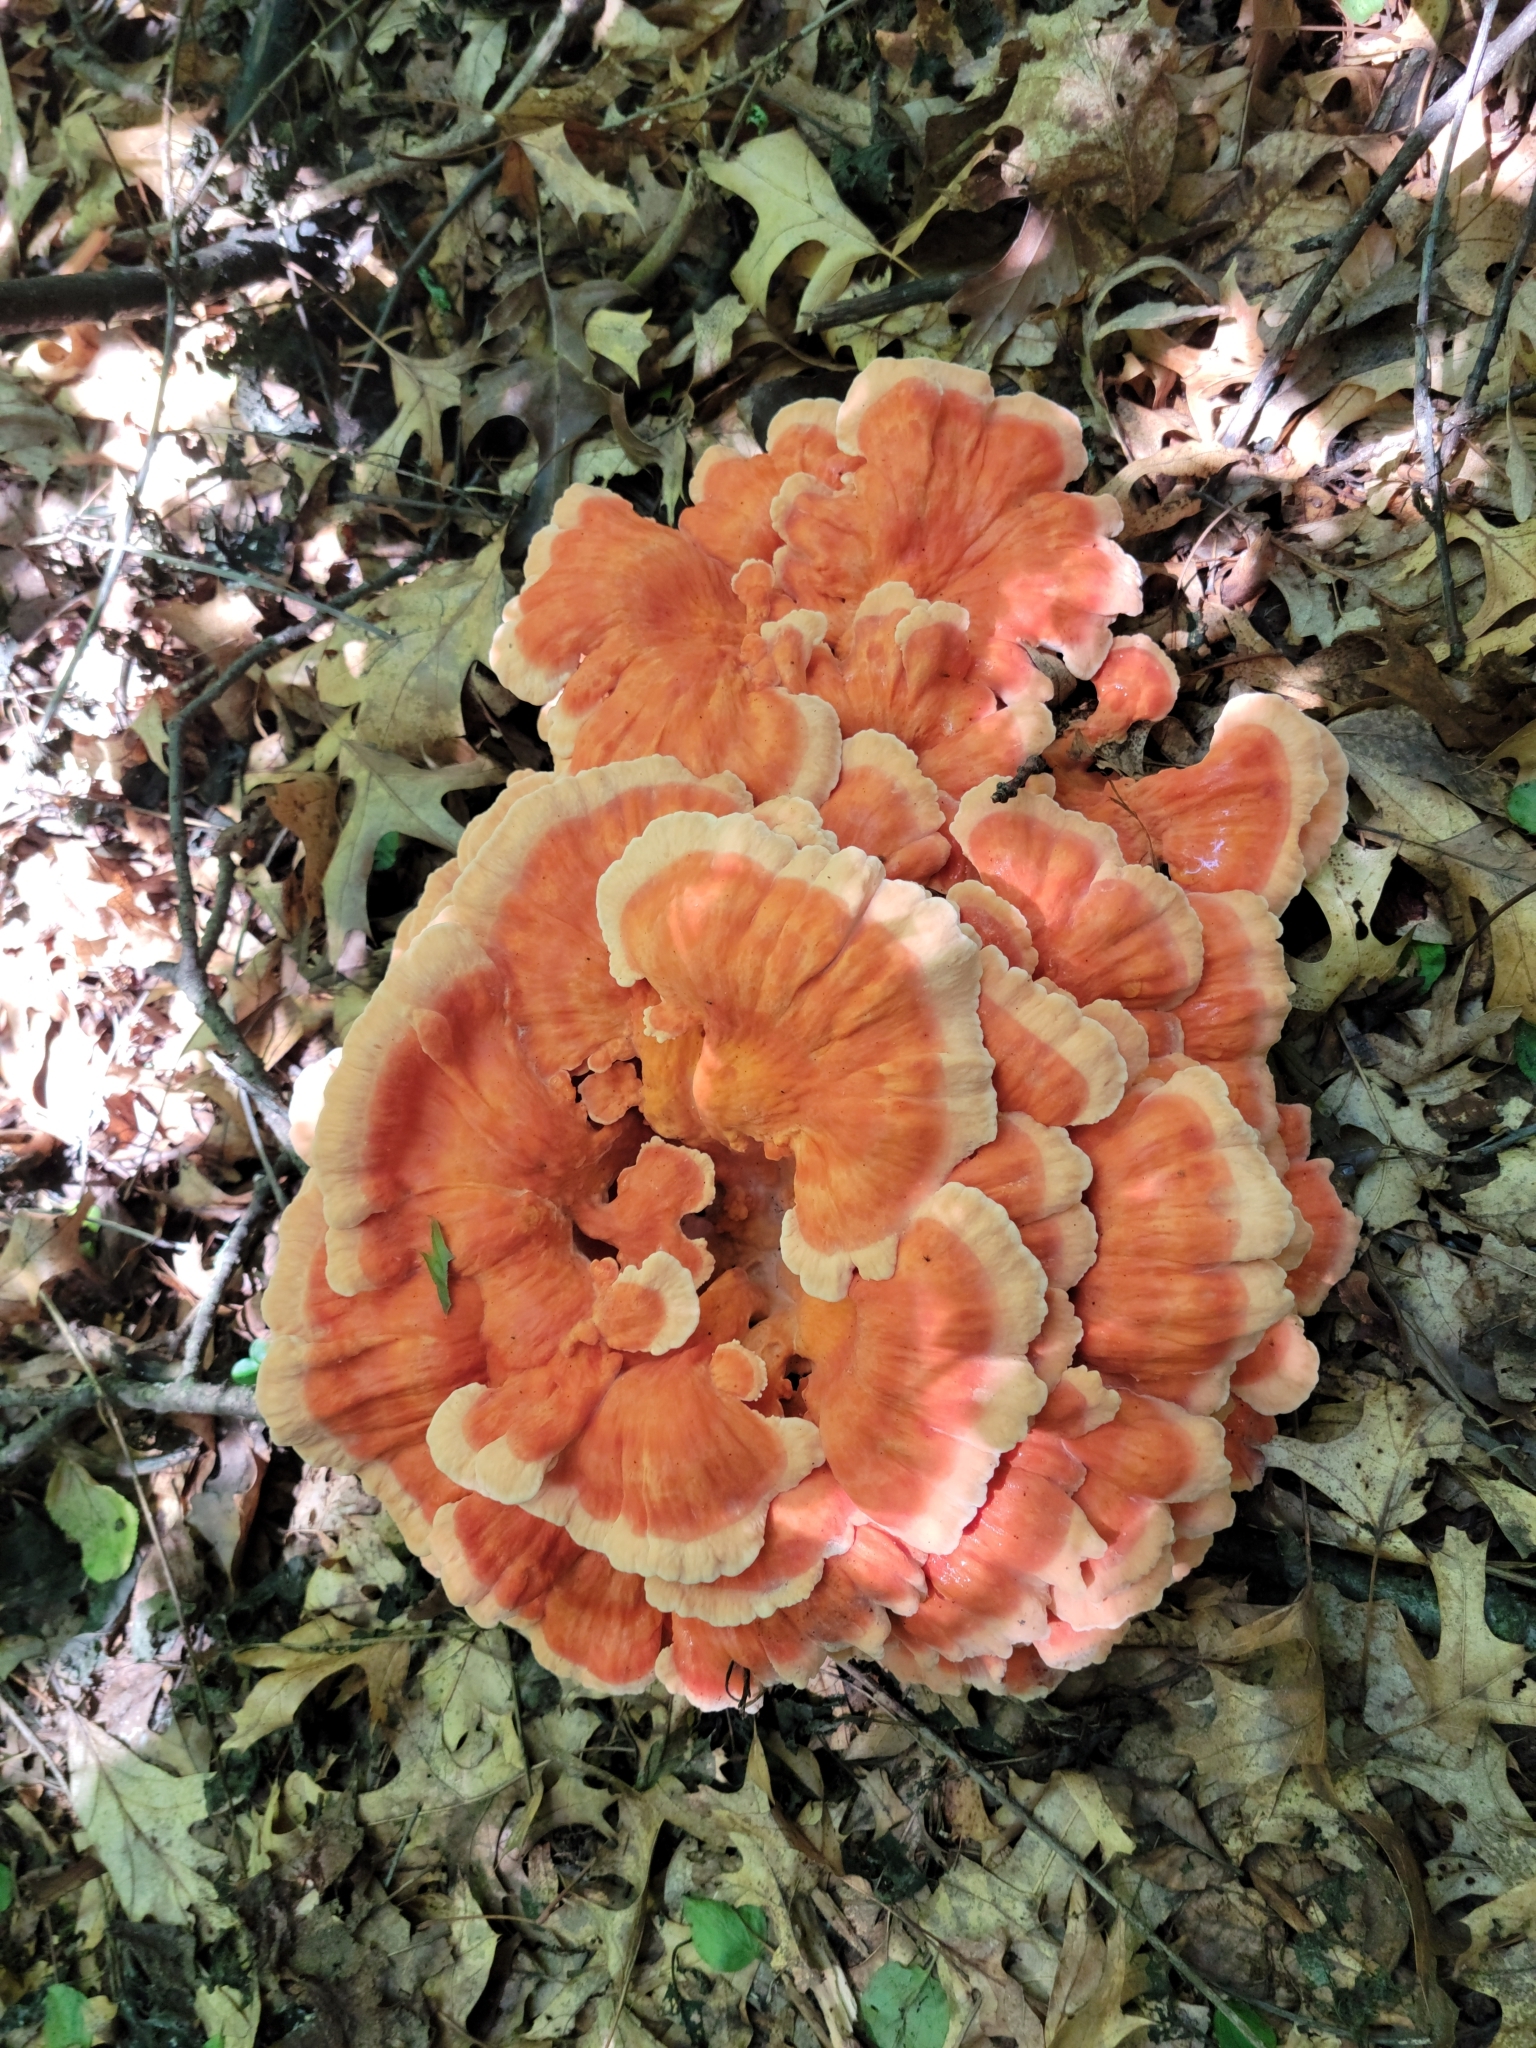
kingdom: Fungi
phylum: Basidiomycota
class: Agaricomycetes
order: Polyporales
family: Laetiporaceae
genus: Laetiporus
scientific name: Laetiporus sulphureus
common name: Chicken of the woods
